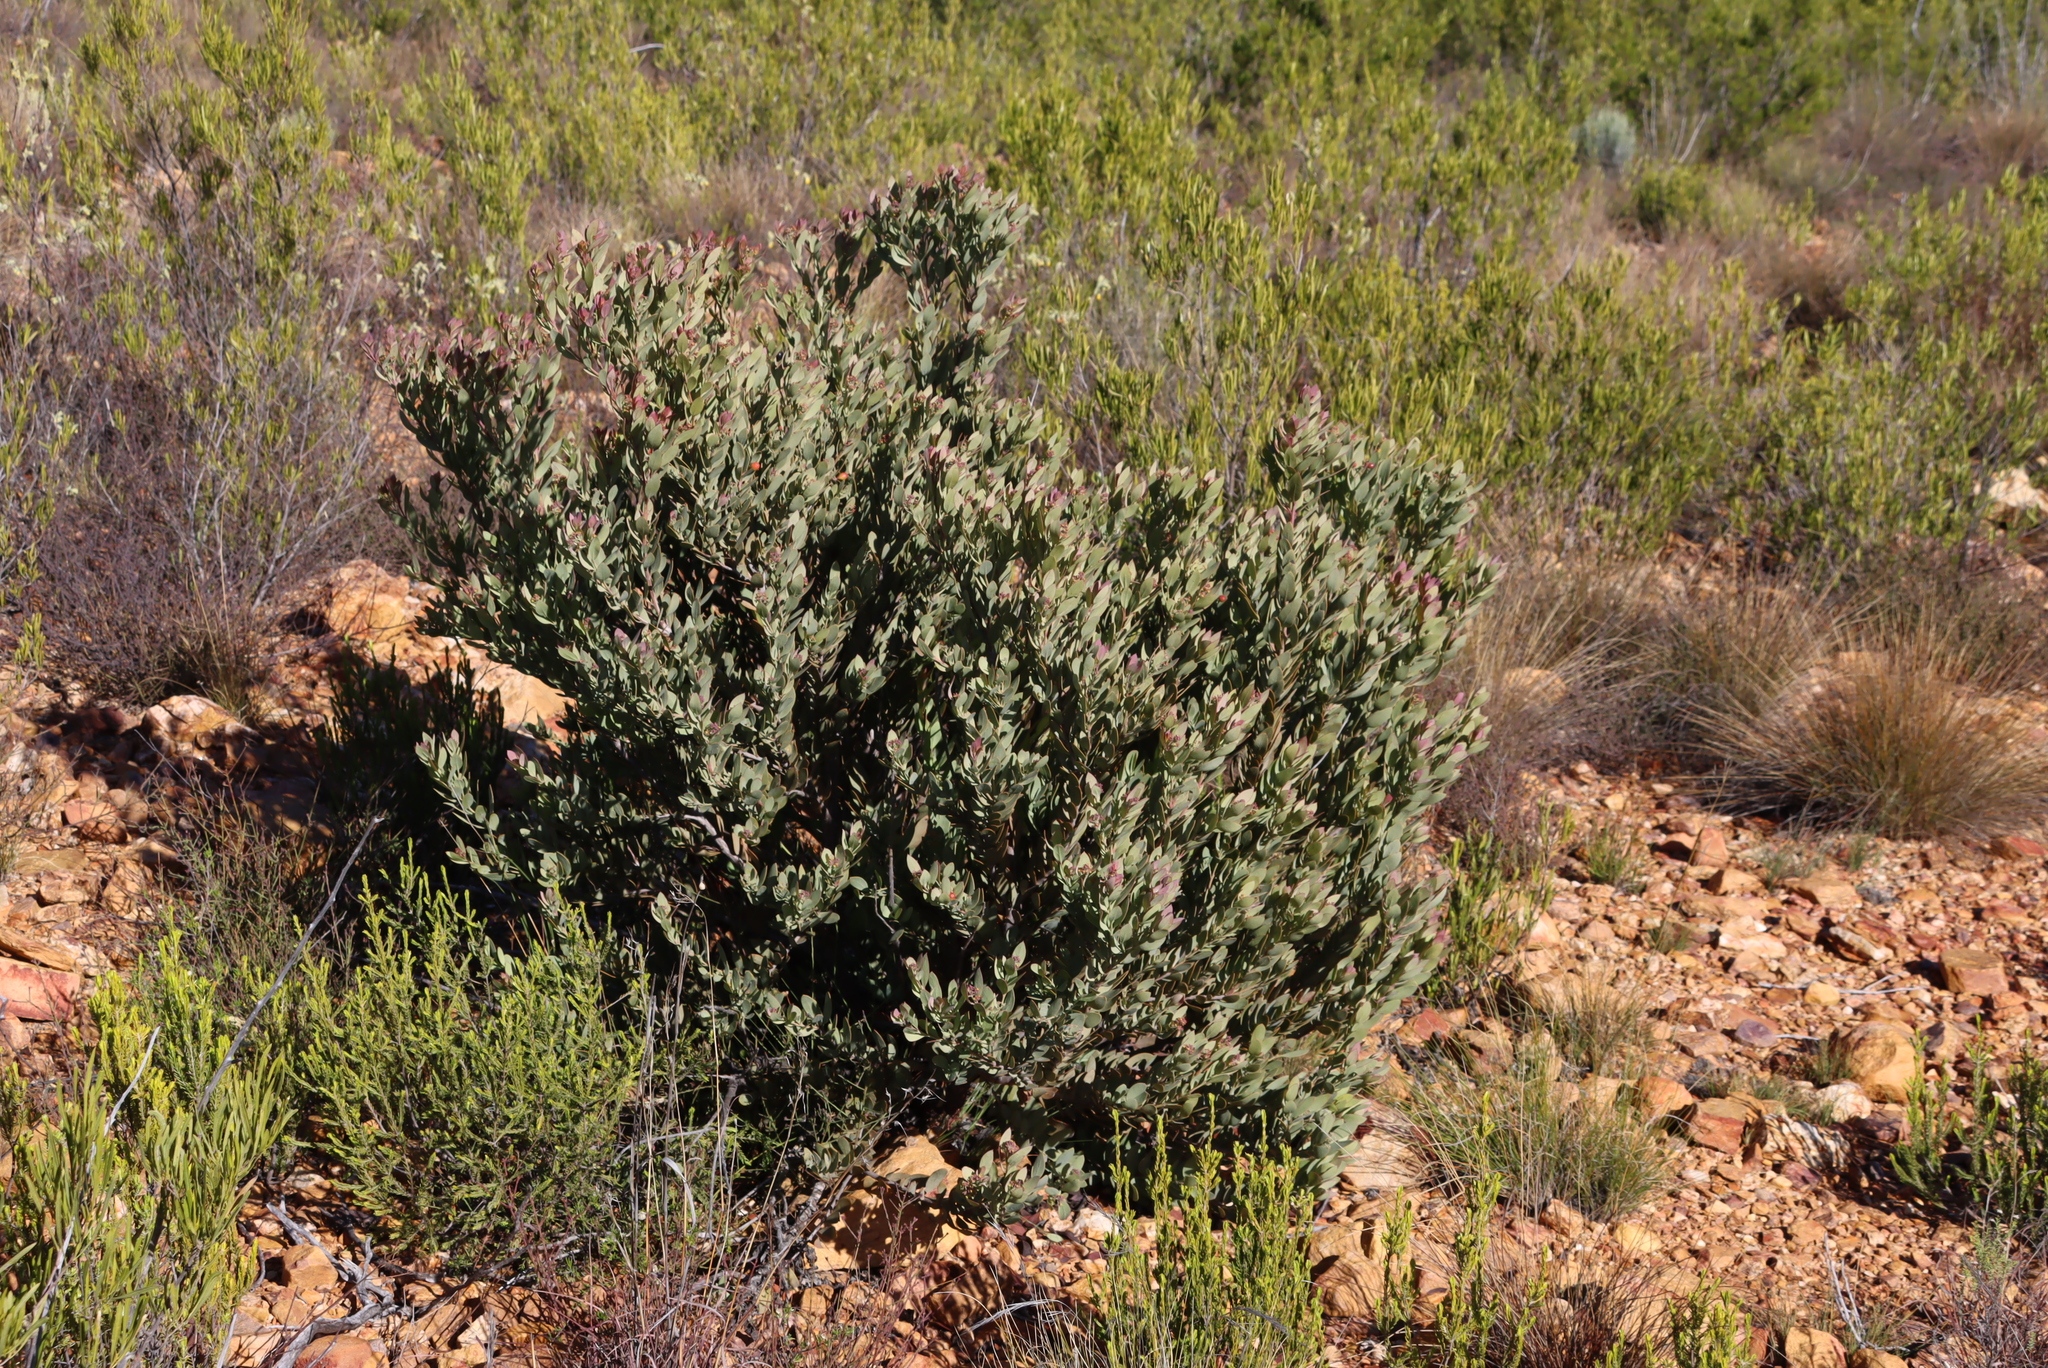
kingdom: Plantae
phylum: Tracheophyta
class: Magnoliopsida
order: Santalales
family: Santalaceae
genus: Osyris
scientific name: Osyris compressa
